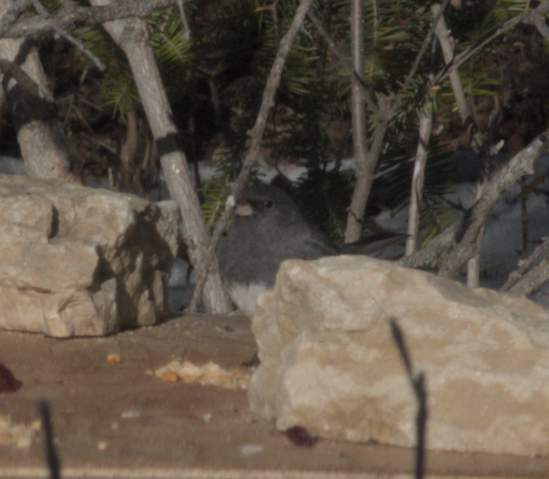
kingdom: Animalia
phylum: Chordata
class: Aves
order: Passeriformes
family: Passerellidae
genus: Junco
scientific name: Junco hyemalis
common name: Dark-eyed junco
